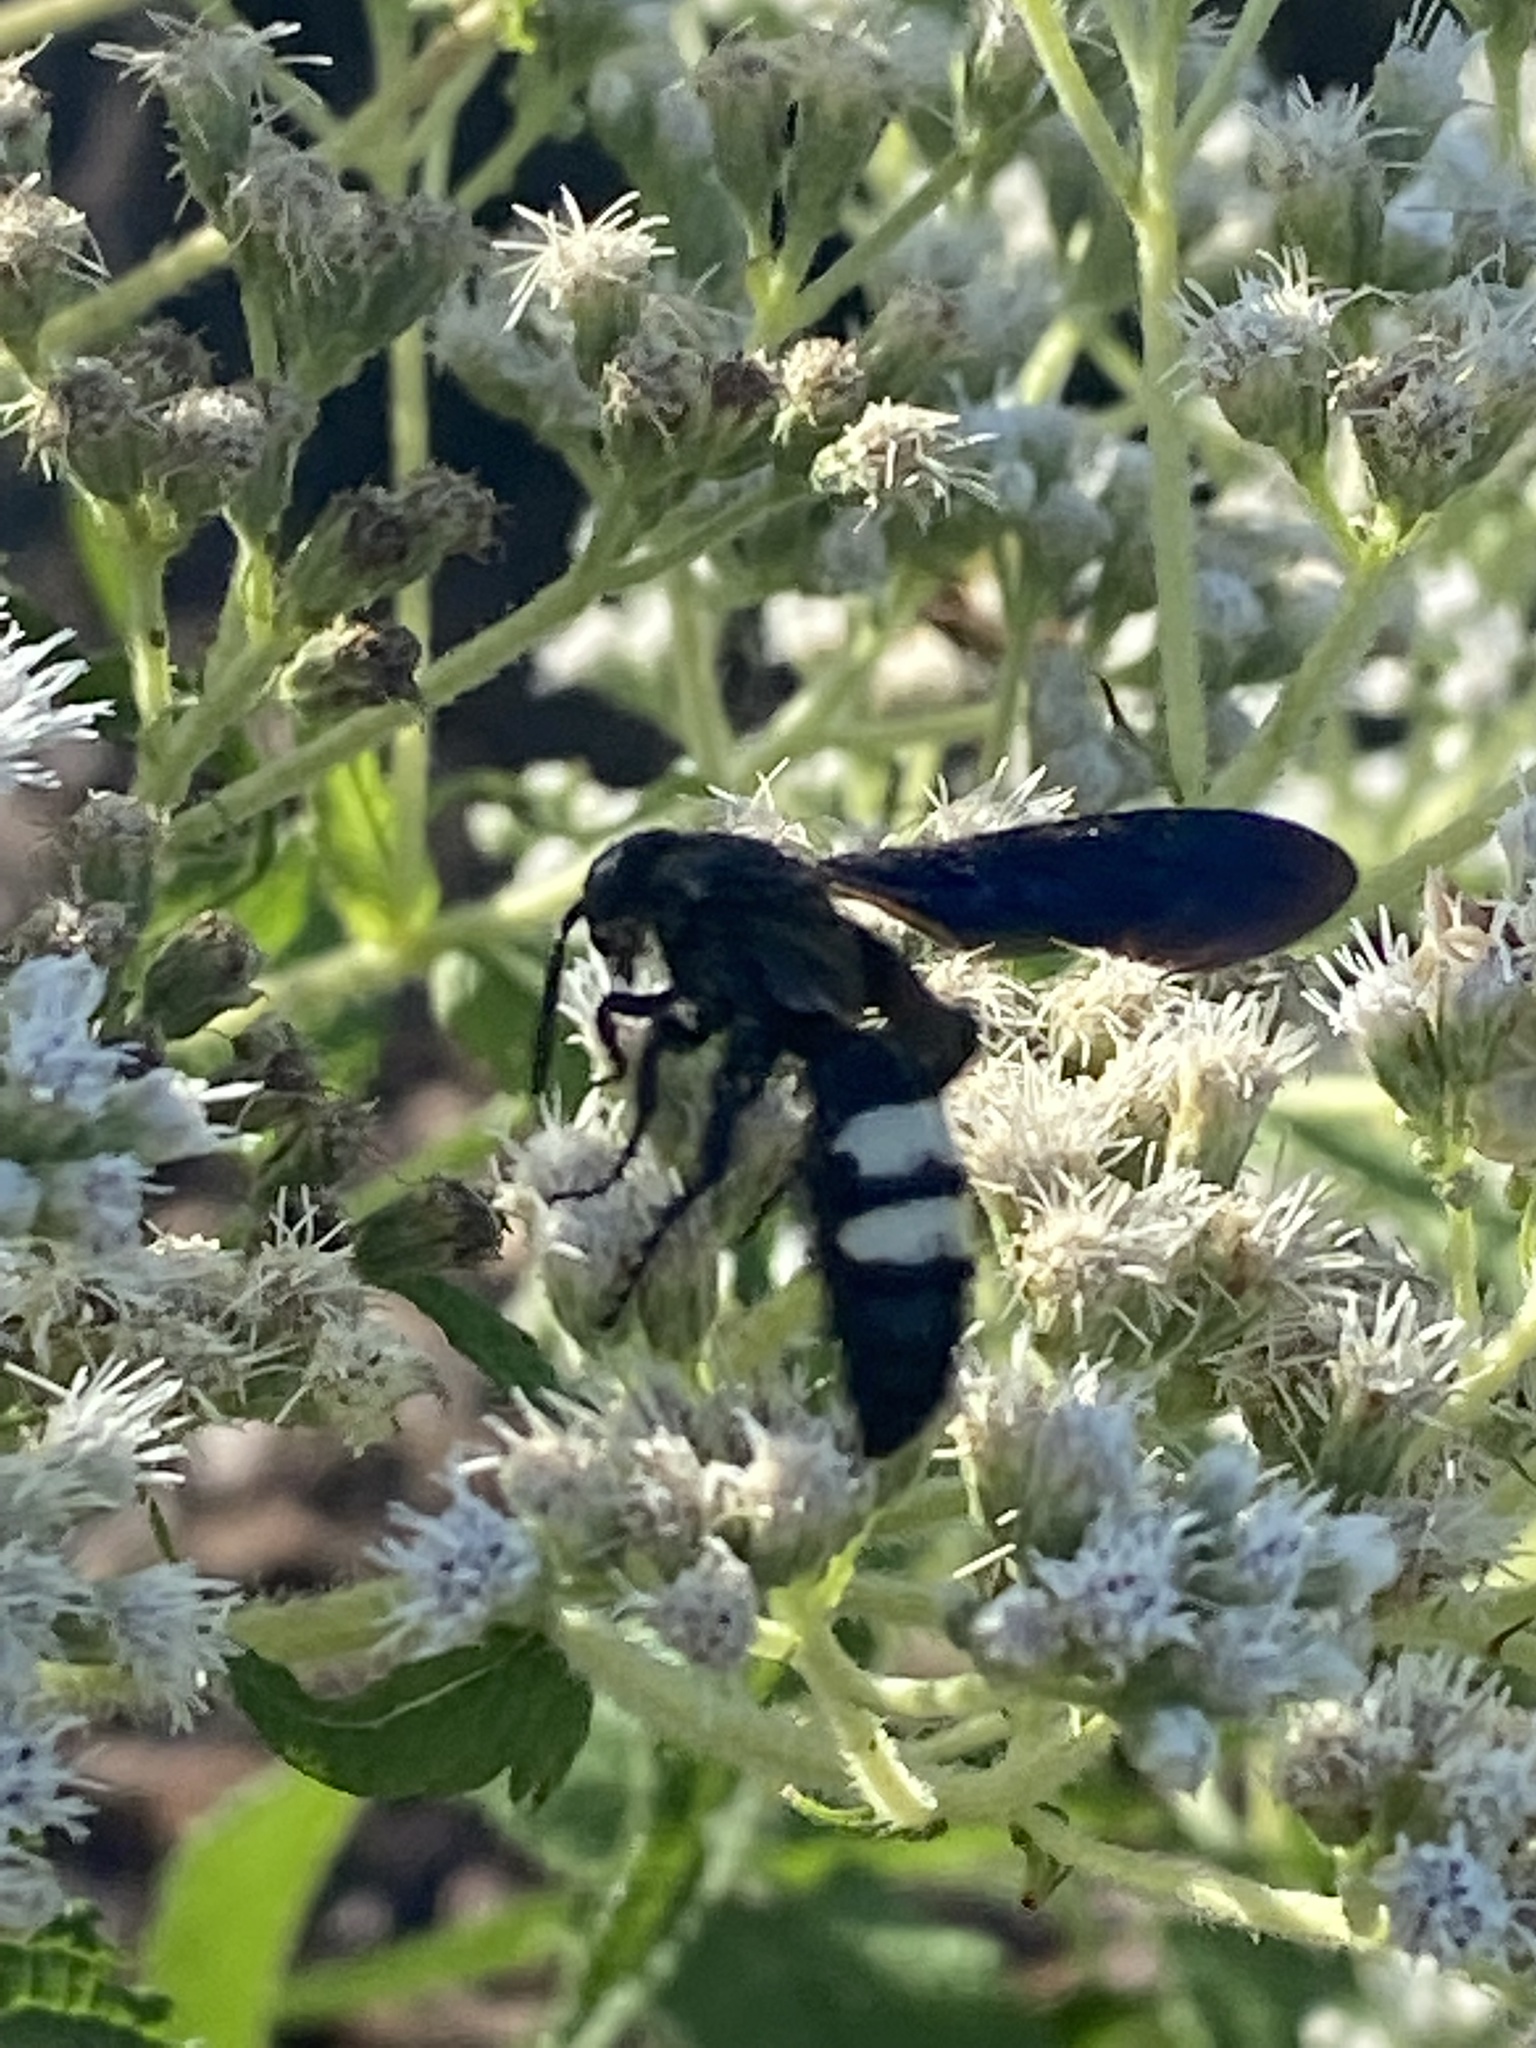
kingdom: Animalia
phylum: Arthropoda
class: Insecta
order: Hymenoptera
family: Scoliidae
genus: Scolia
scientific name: Scolia bicincta
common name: Double-banded scoliid wasp
